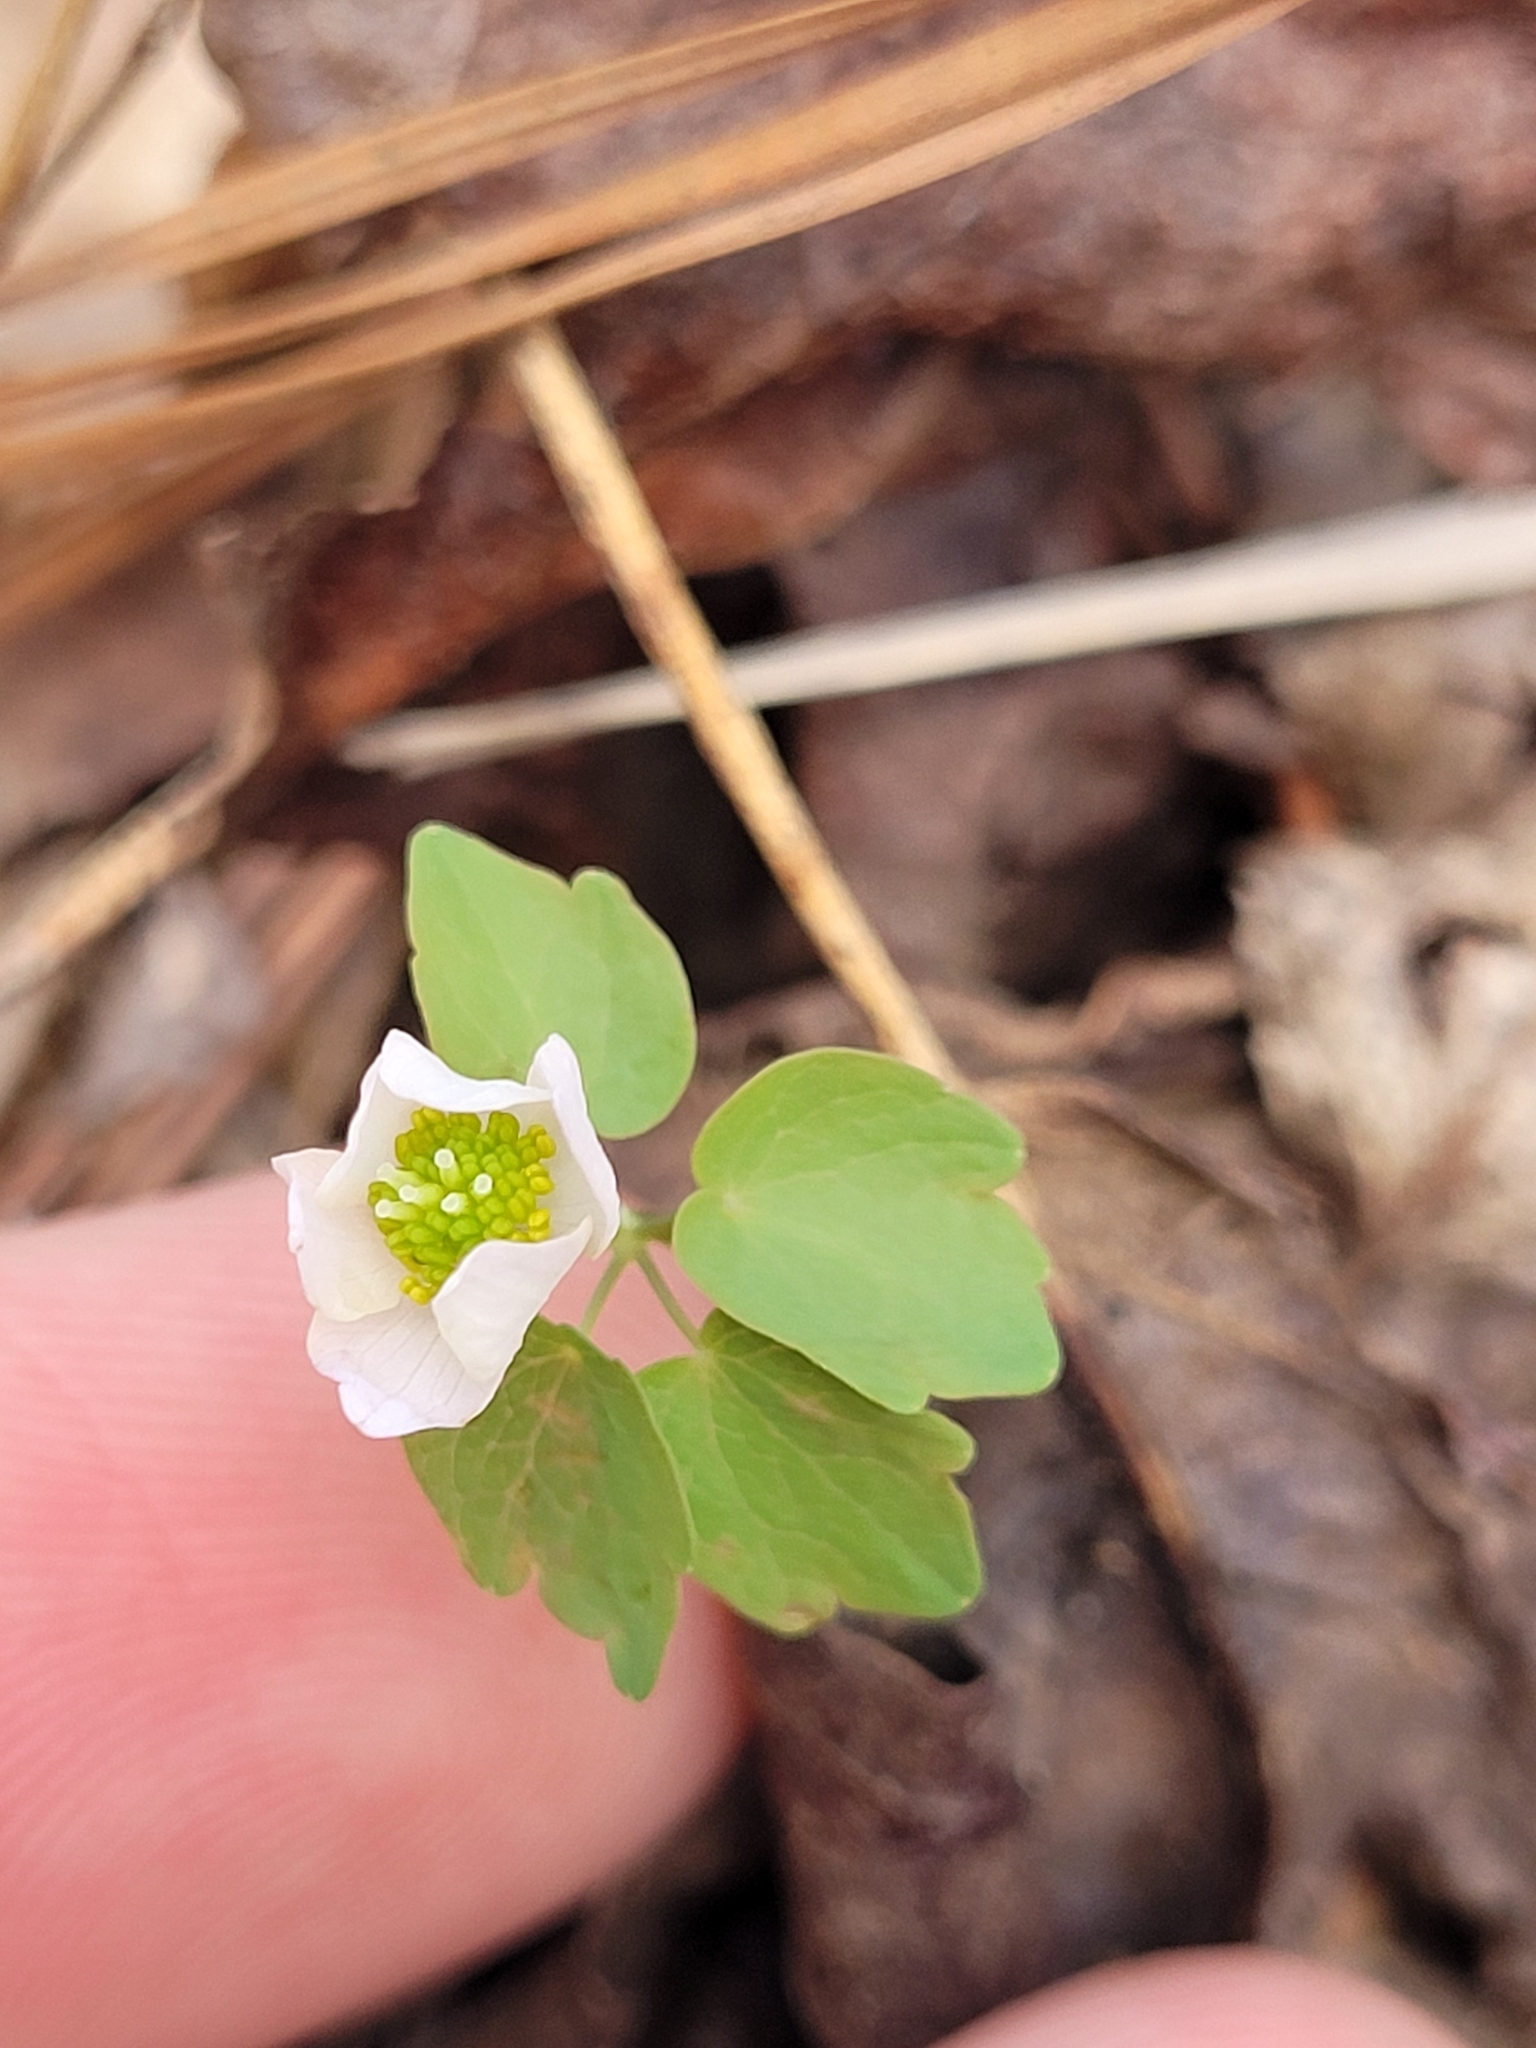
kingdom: Plantae
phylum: Tracheophyta
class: Magnoliopsida
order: Ranunculales
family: Ranunculaceae
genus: Thalictrum
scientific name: Thalictrum thalictroides
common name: Rue-anemone
